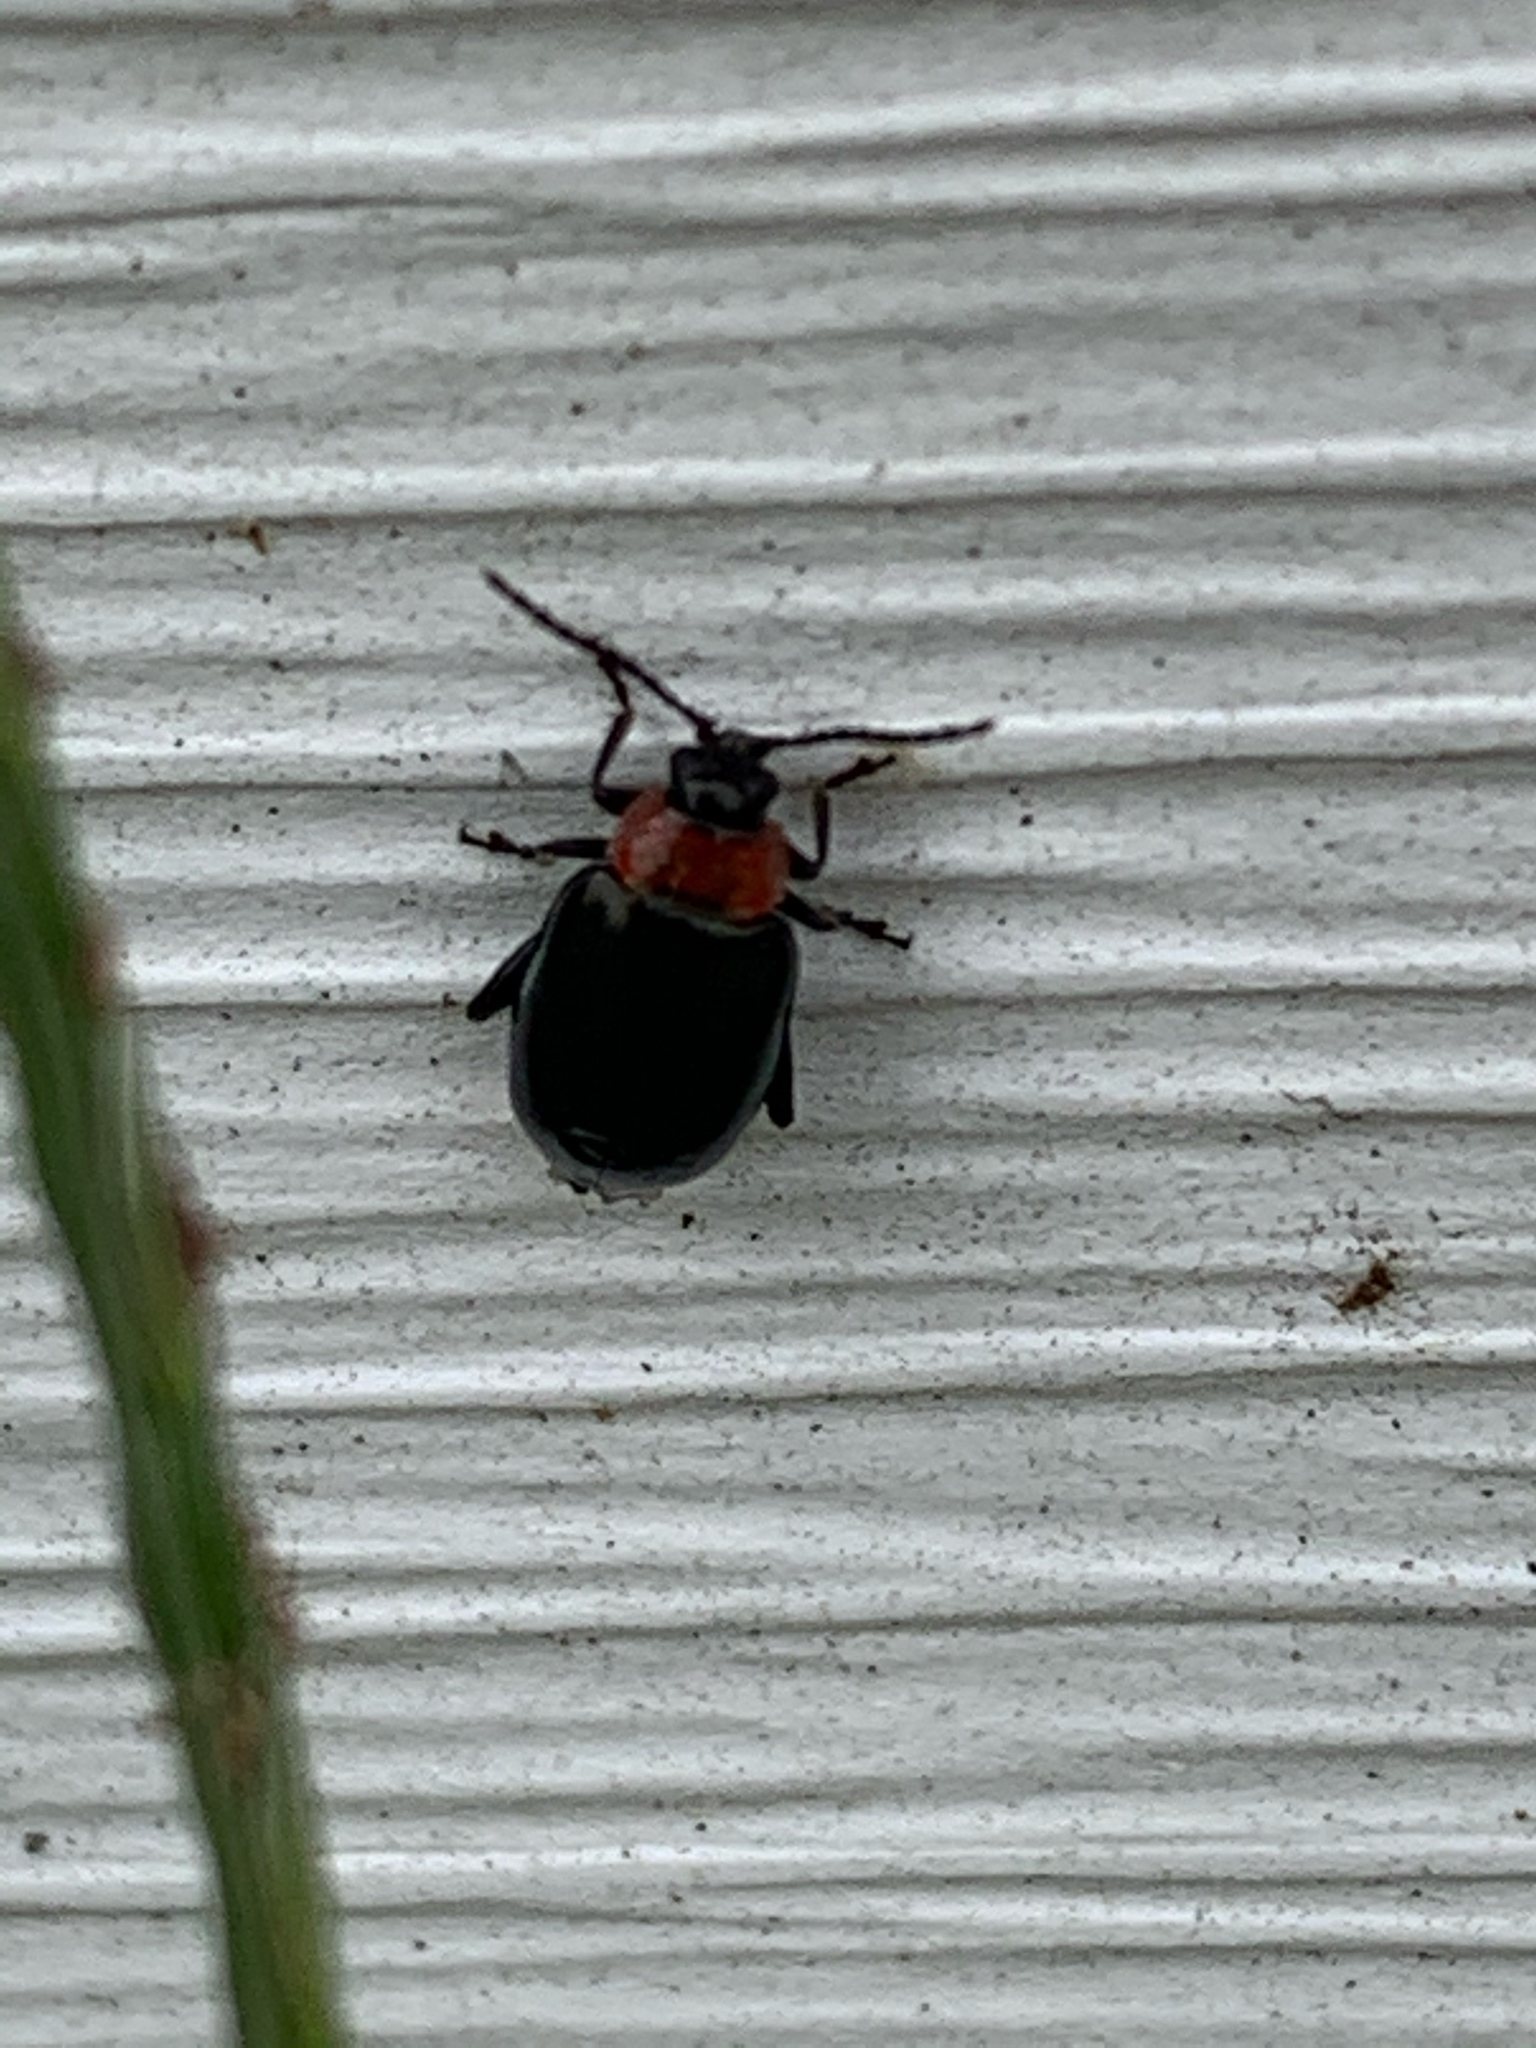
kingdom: Animalia
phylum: Arthropoda
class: Insecta
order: Coleoptera
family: Chrysomelidae
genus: Disonycha
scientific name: Disonycha xanthomelas
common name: Spinach flea beetle
